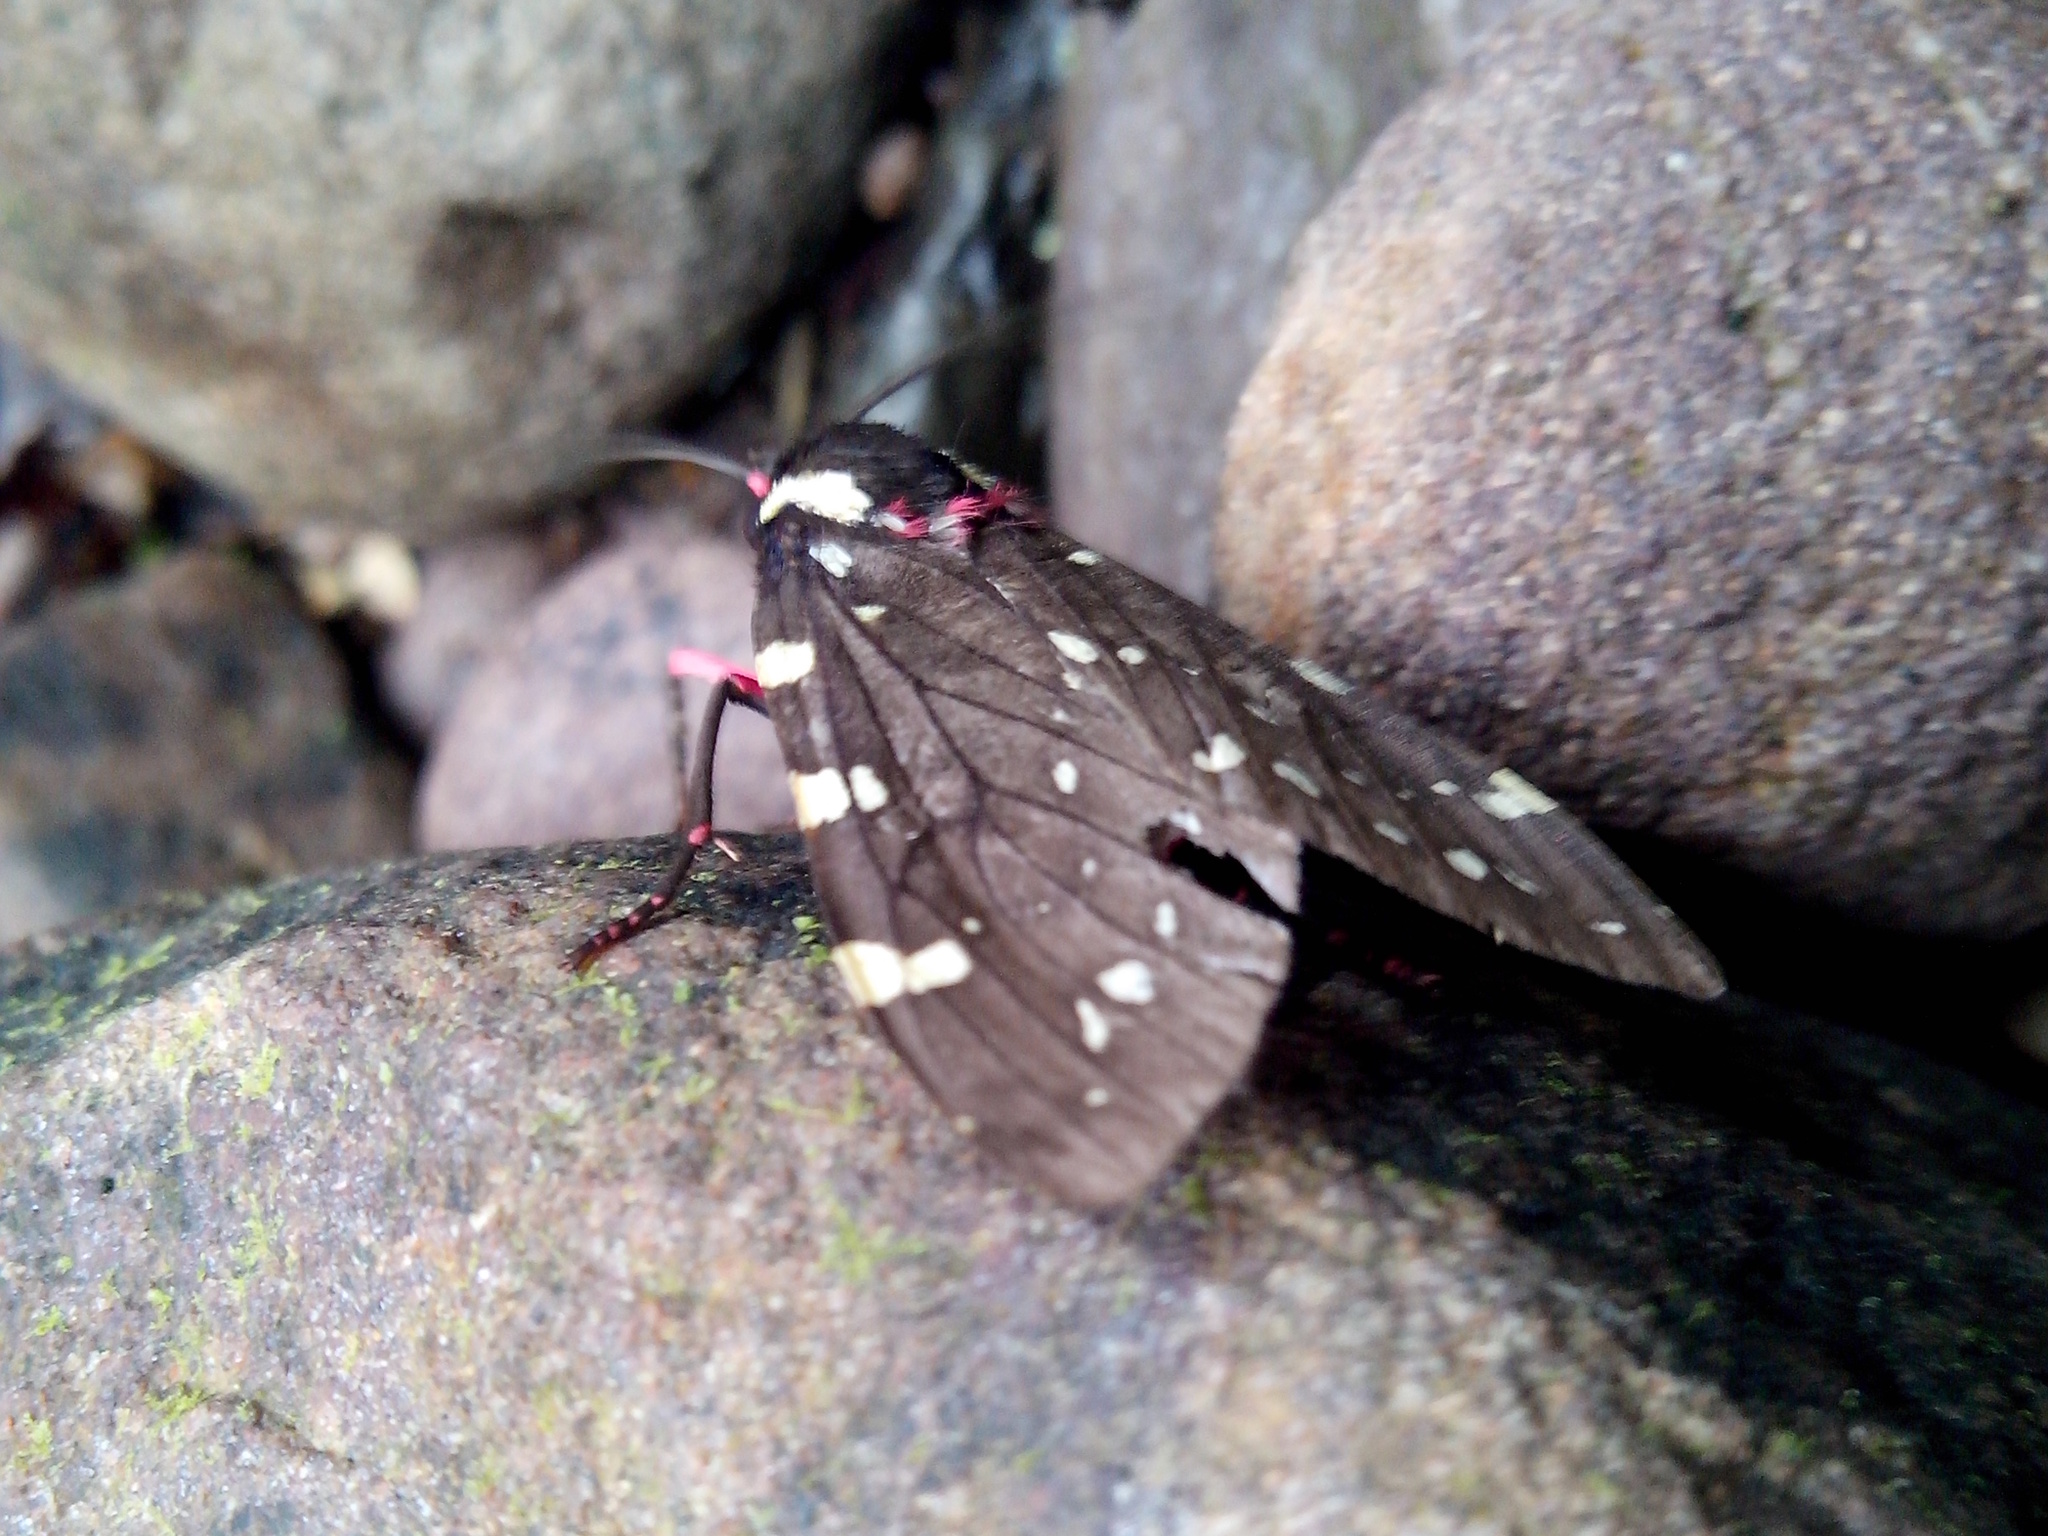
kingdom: Animalia
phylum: Arthropoda
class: Insecta
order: Lepidoptera
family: Erebidae
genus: Opharus
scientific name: Opharus
